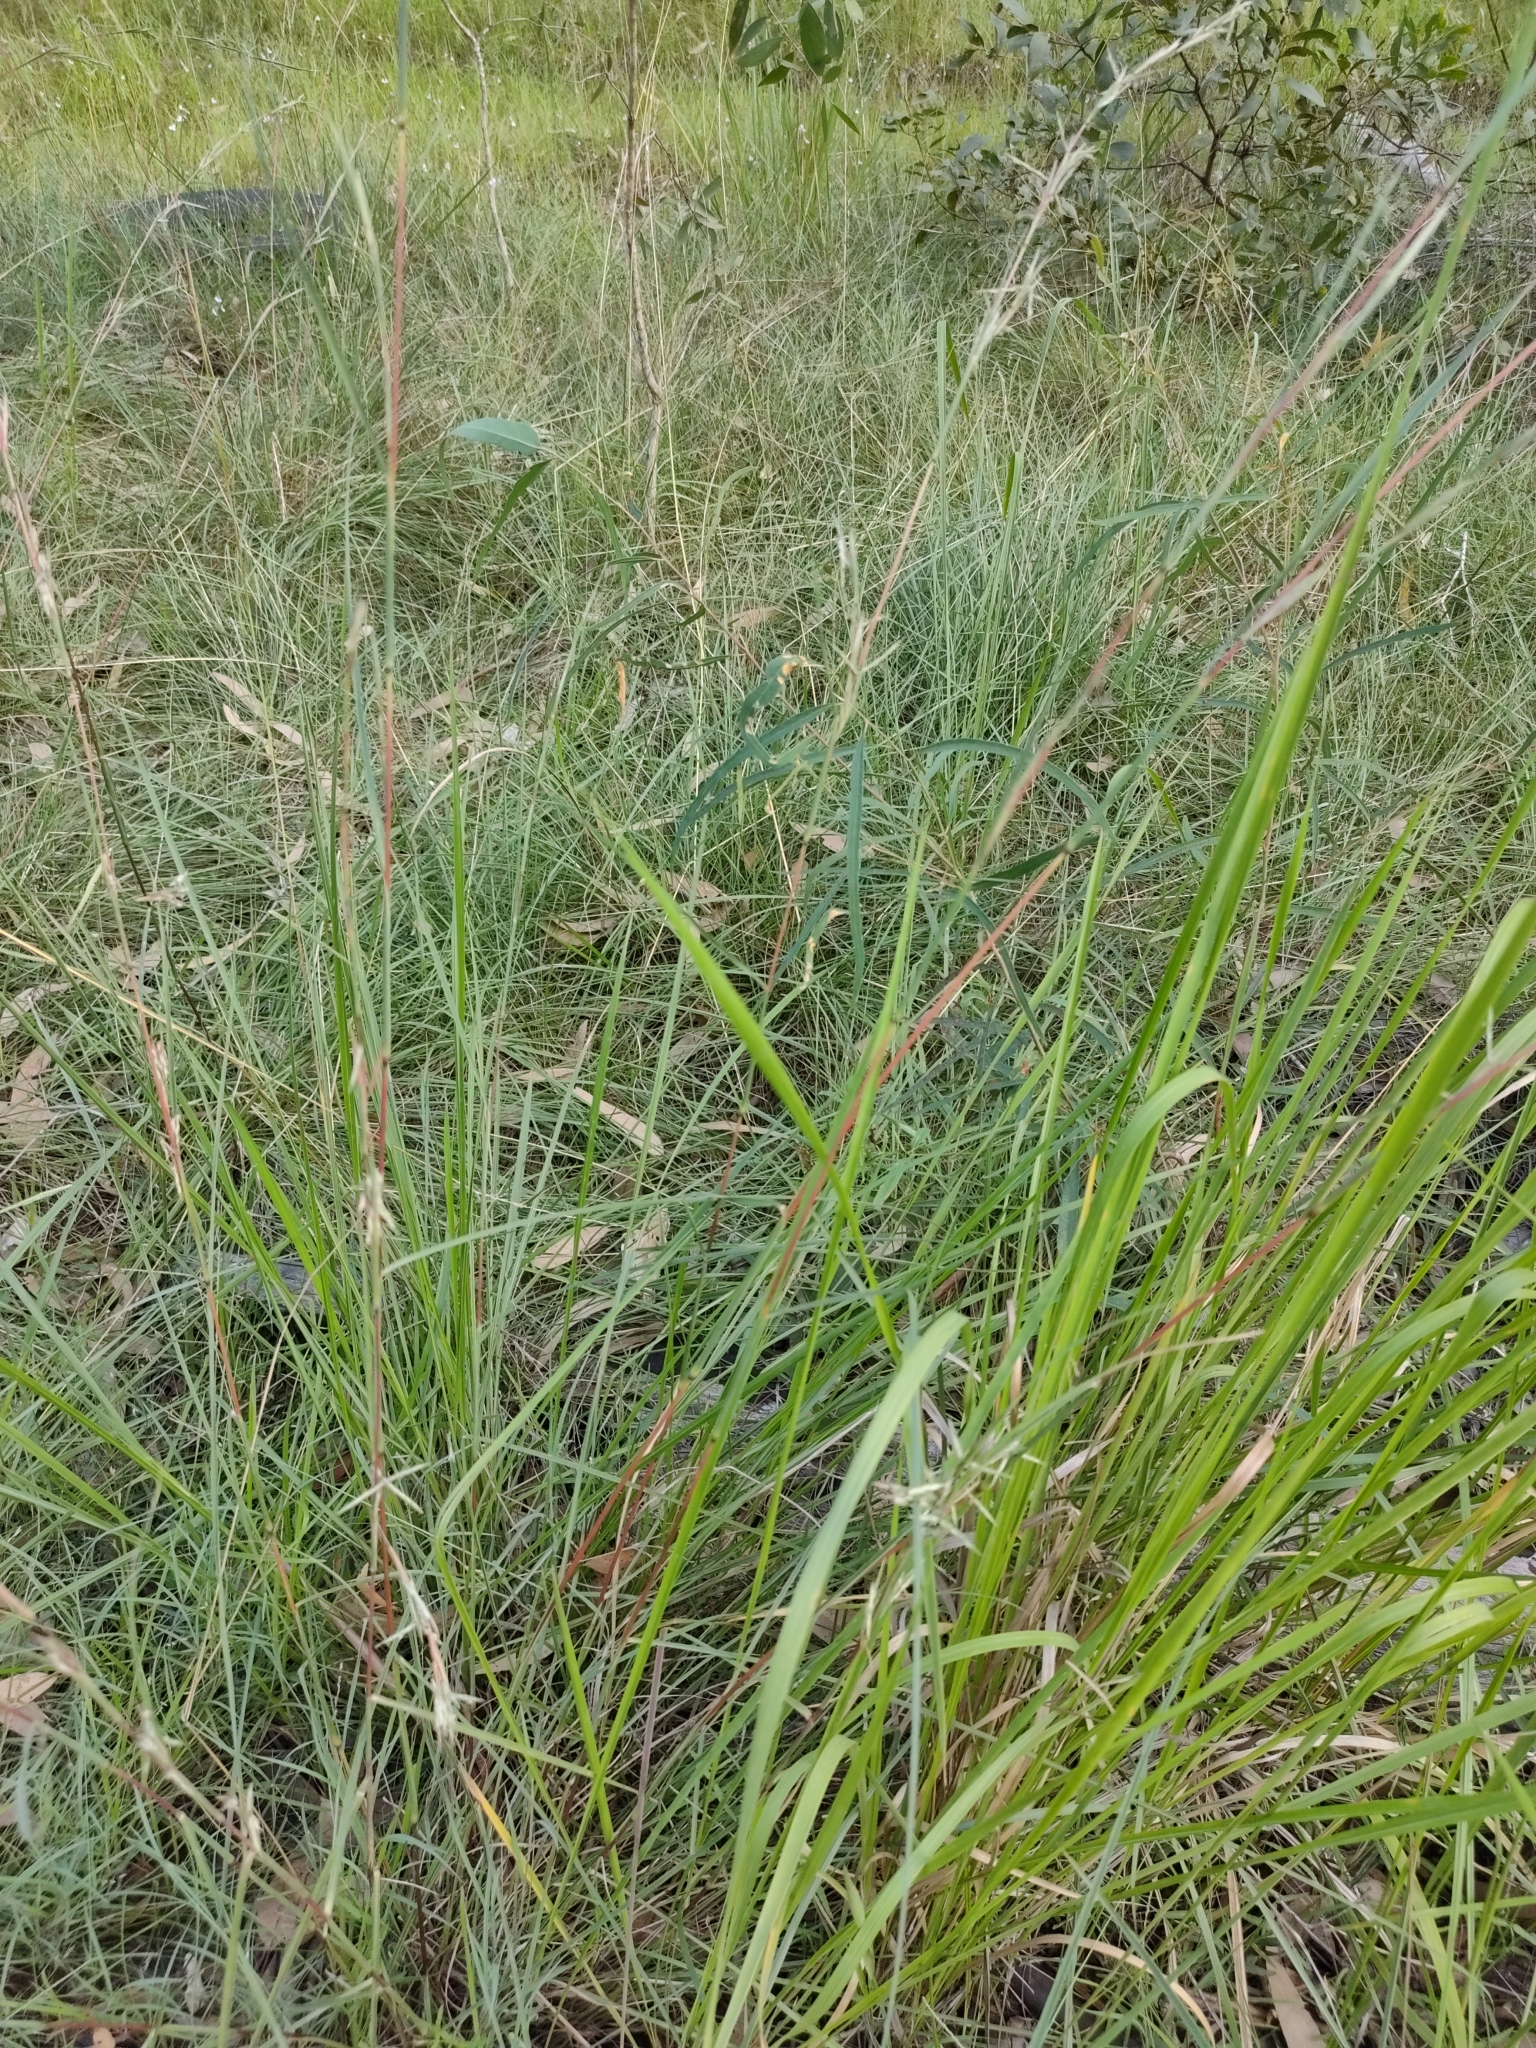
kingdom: Plantae
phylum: Tracheophyta
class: Liliopsida
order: Poales
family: Poaceae
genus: Cymbopogon
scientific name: Cymbopogon refractus
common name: Barbwire grass
